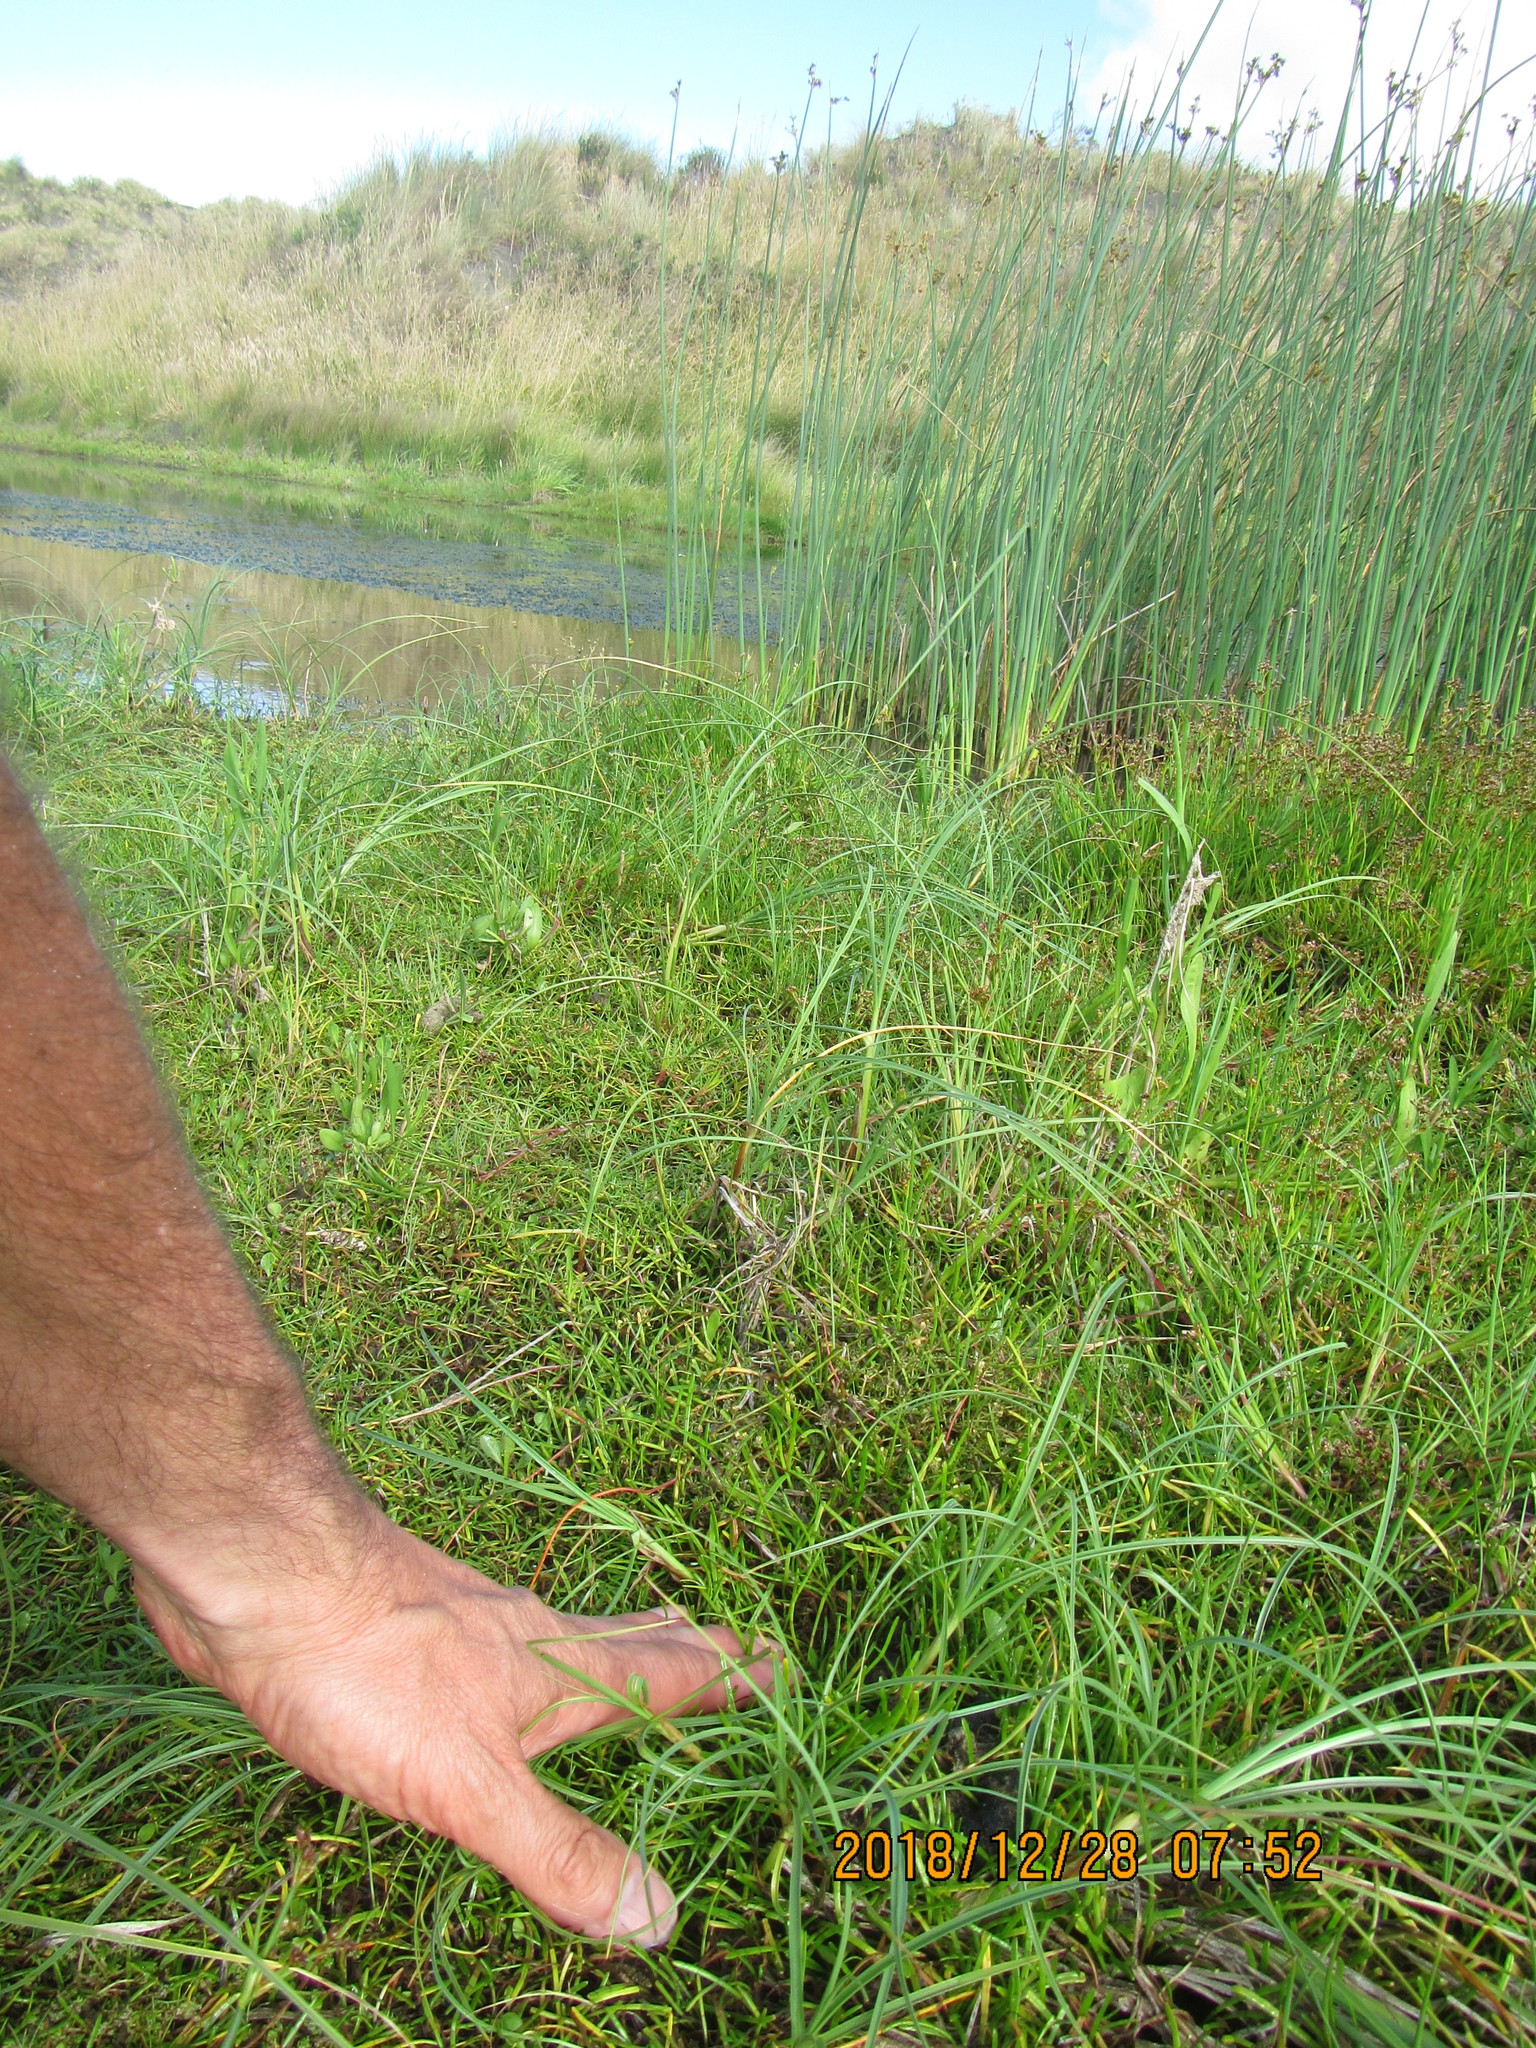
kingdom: Plantae
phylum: Tracheophyta
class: Magnoliopsida
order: Apiales
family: Apiaceae
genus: Lilaeopsis
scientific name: Lilaeopsis novae-zelandiae
